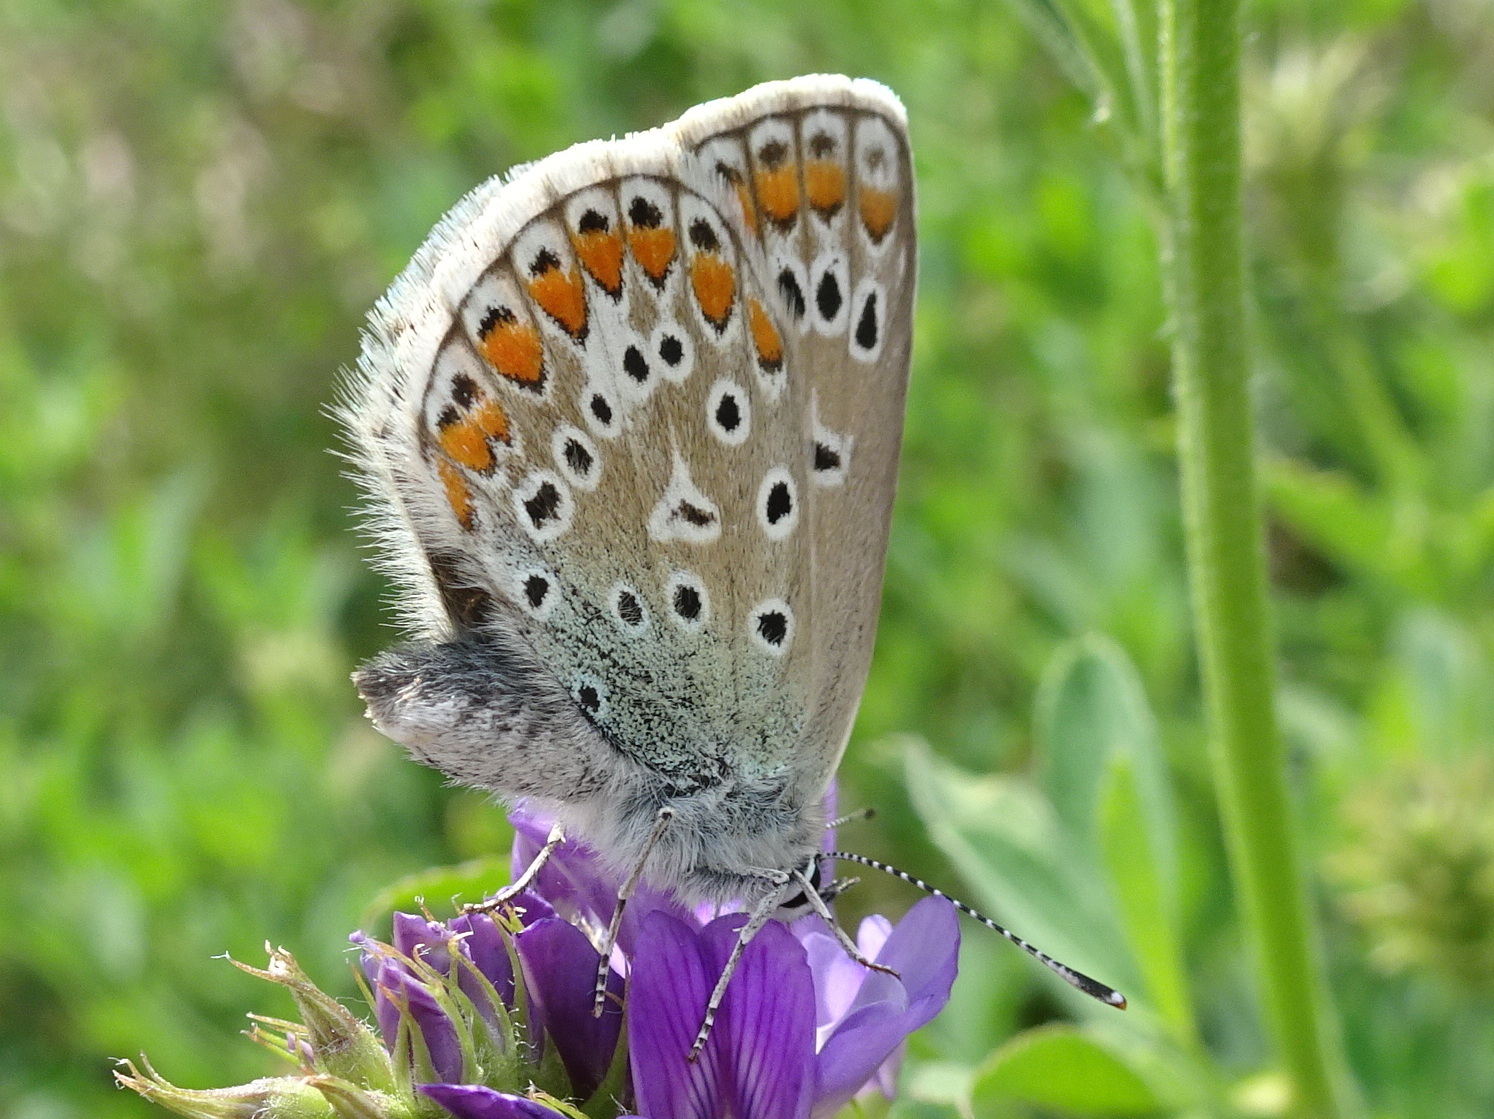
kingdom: Animalia
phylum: Arthropoda
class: Insecta
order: Lepidoptera
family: Lycaenidae
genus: Polyommatus
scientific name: Polyommatus icarus
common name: Common blue
